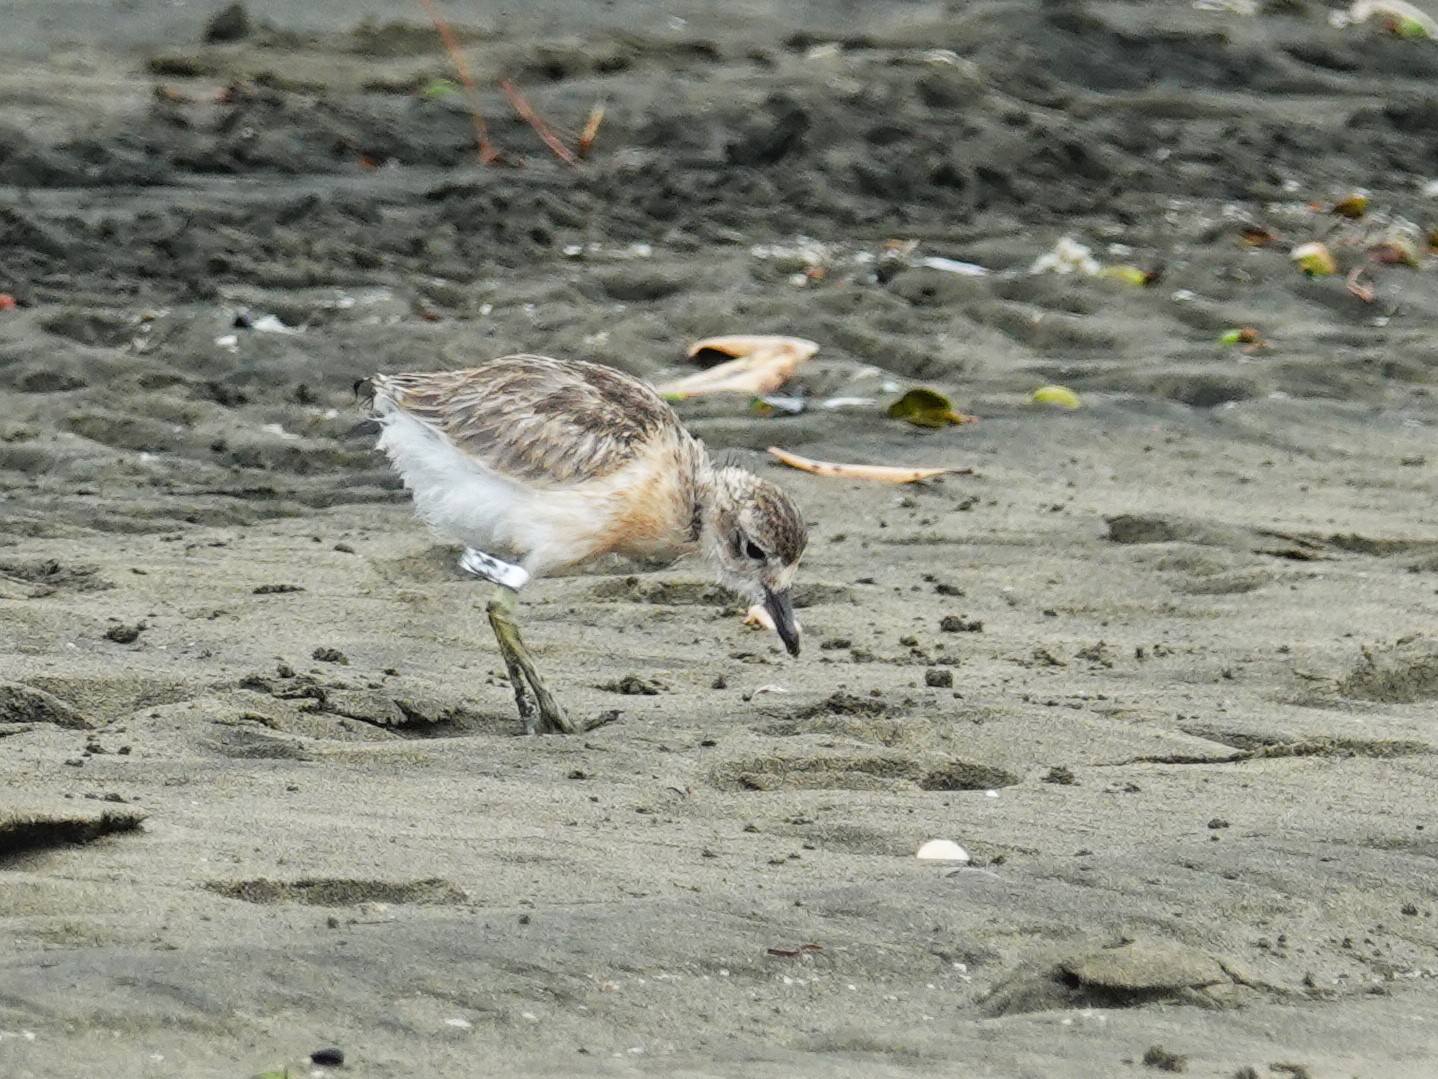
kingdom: Animalia
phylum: Chordata
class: Aves
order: Charadriiformes
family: Charadriidae
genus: Anarhynchus
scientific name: Anarhynchus
